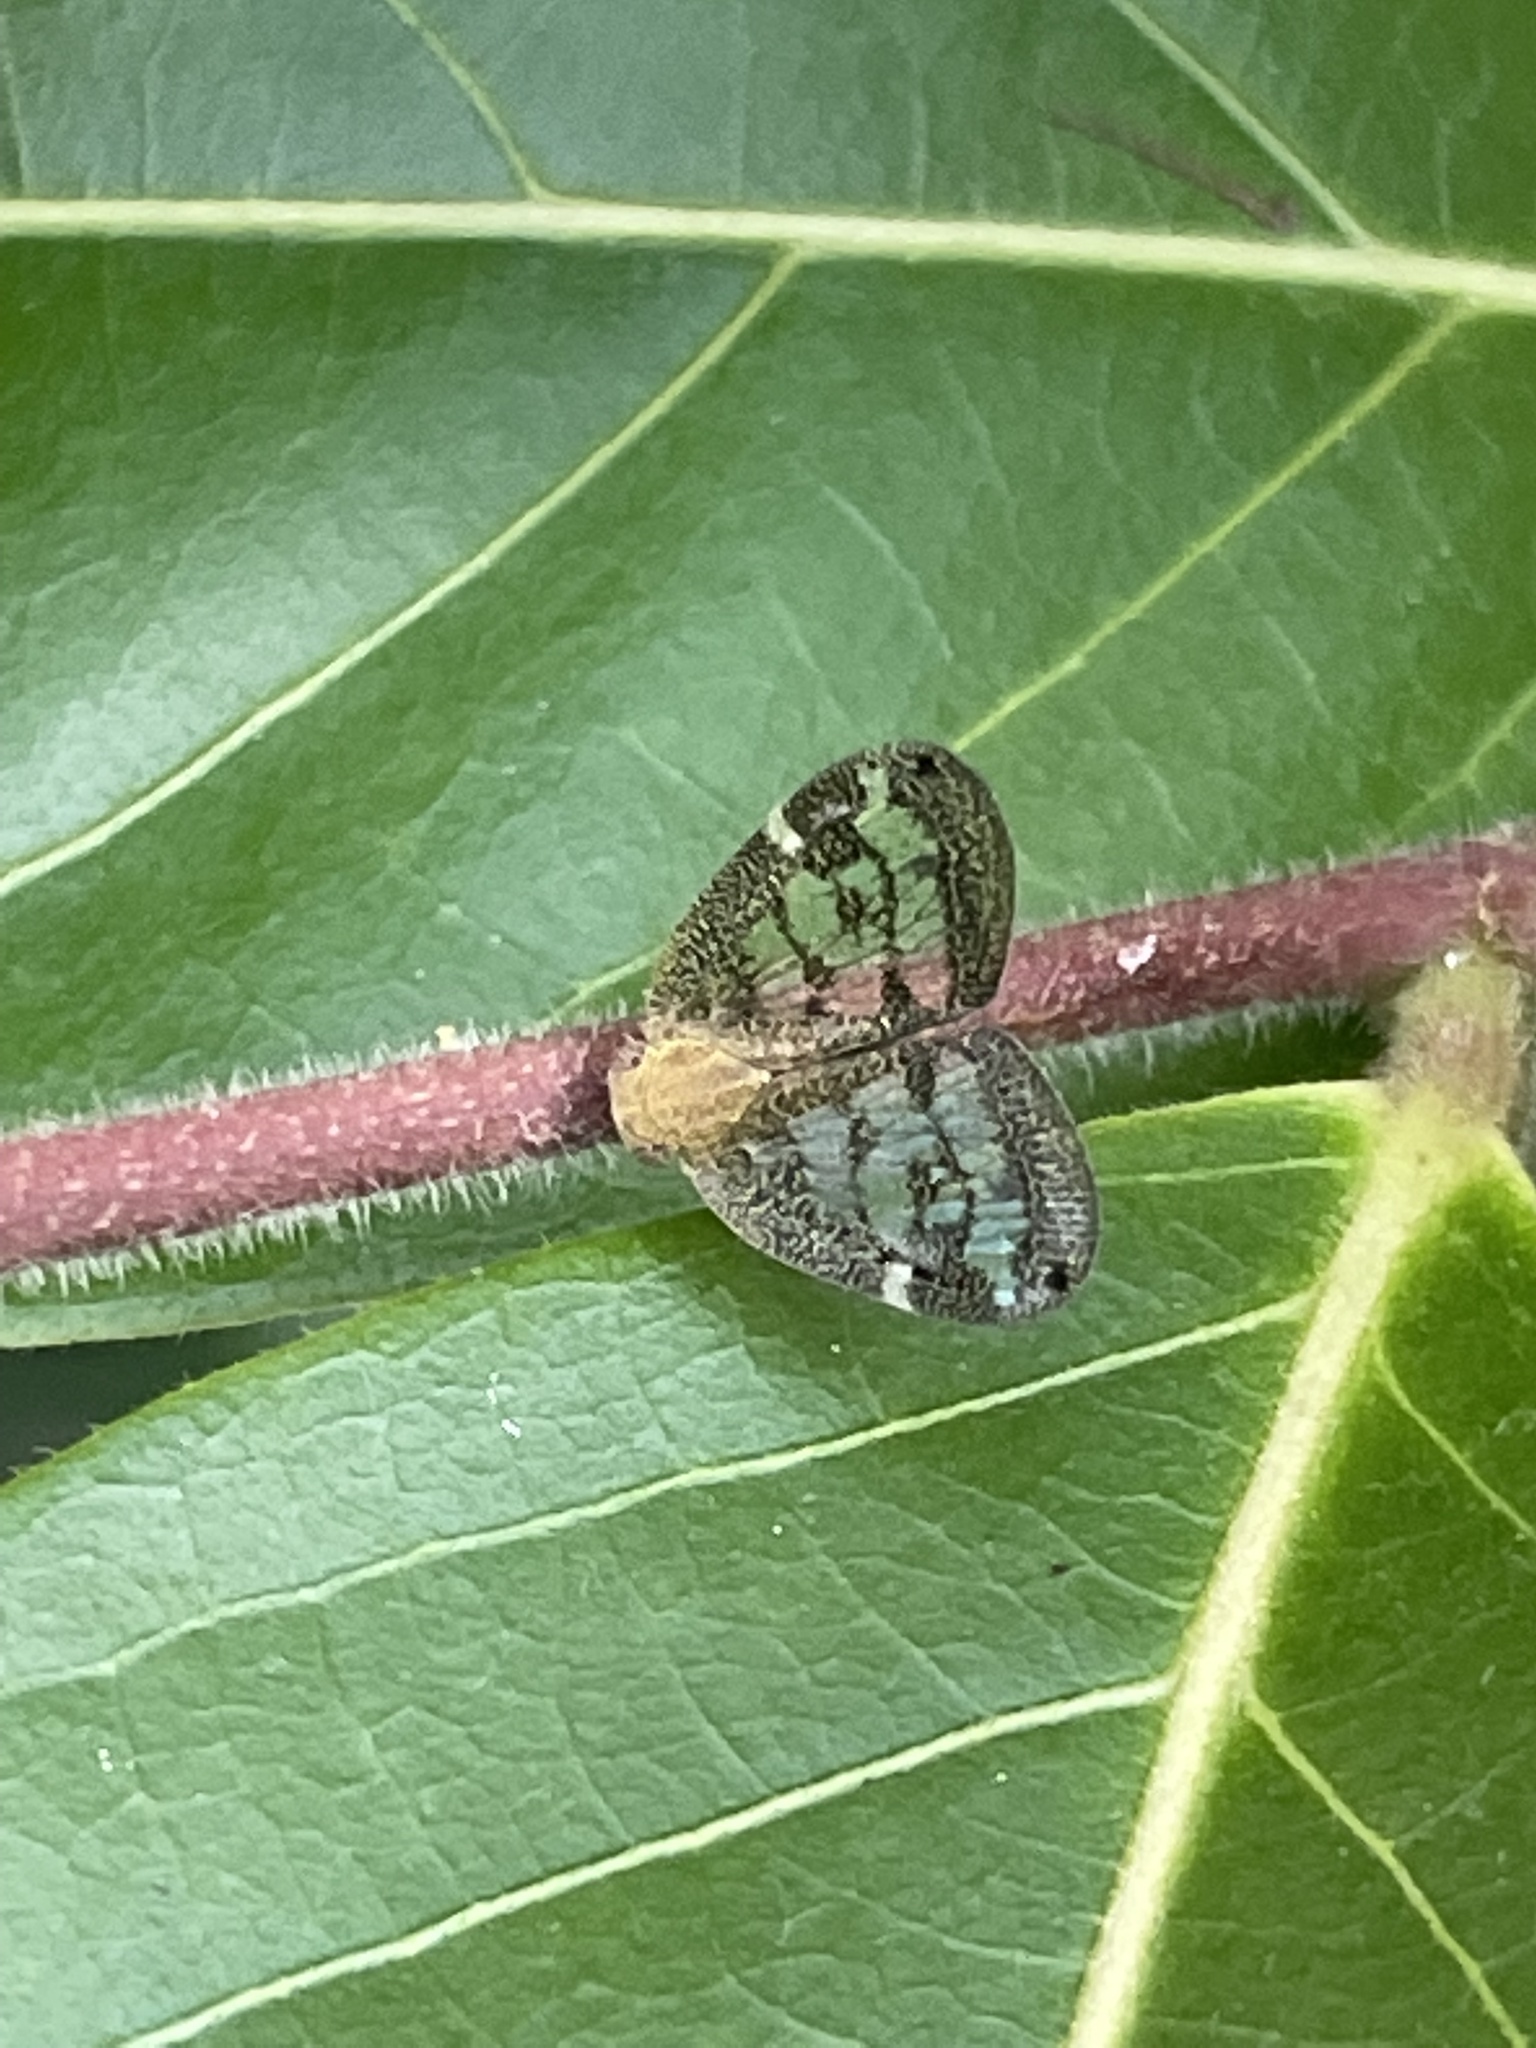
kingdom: Animalia
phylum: Arthropoda
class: Insecta
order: Hemiptera
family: Ricaniidae
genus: Scolypopa
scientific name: Scolypopa australis
